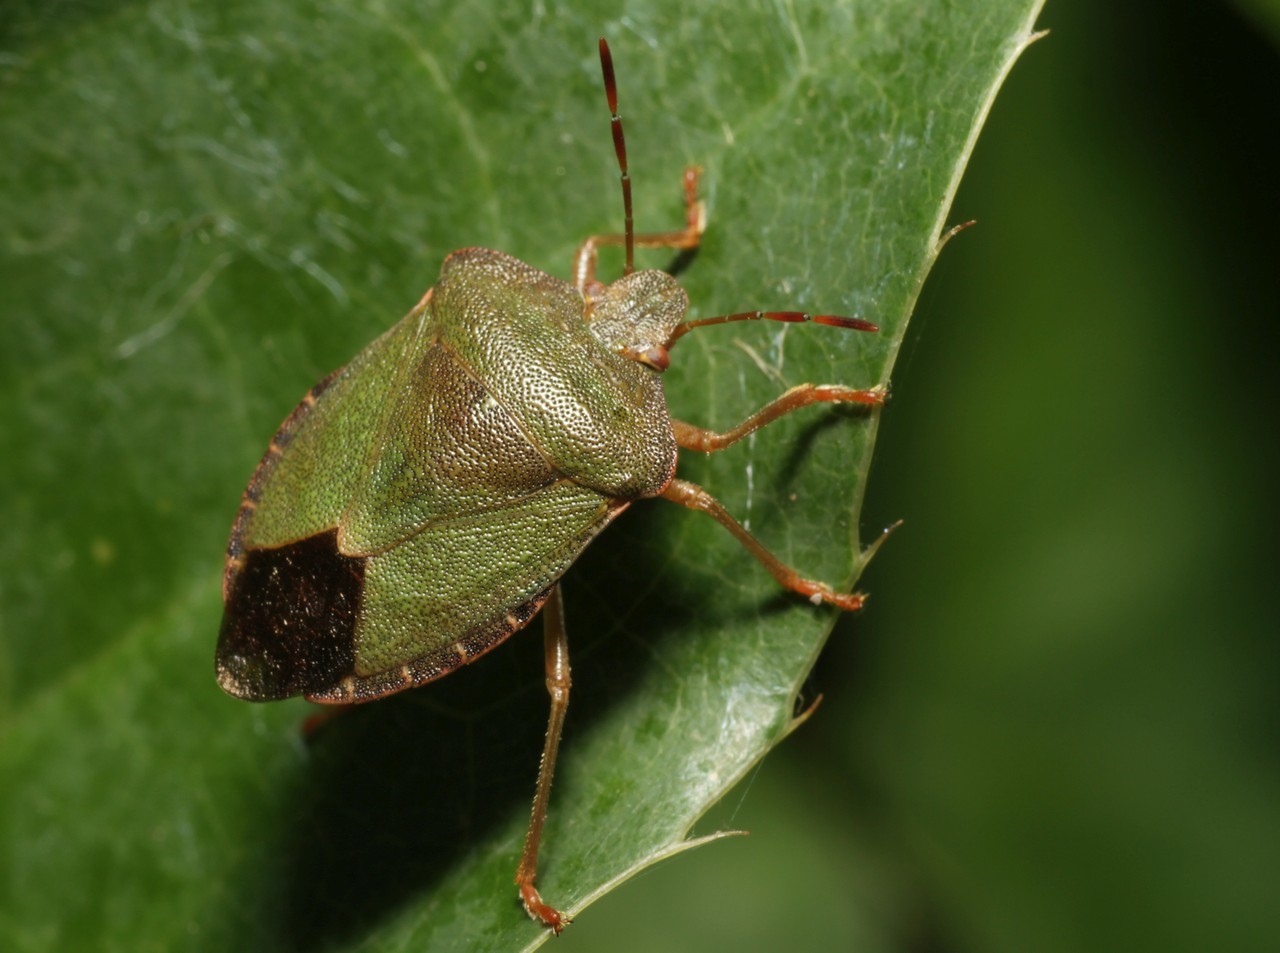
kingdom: Animalia
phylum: Arthropoda
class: Insecta
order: Hemiptera
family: Pentatomidae
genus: Palomena
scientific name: Palomena prasina
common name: Green shieldbug
